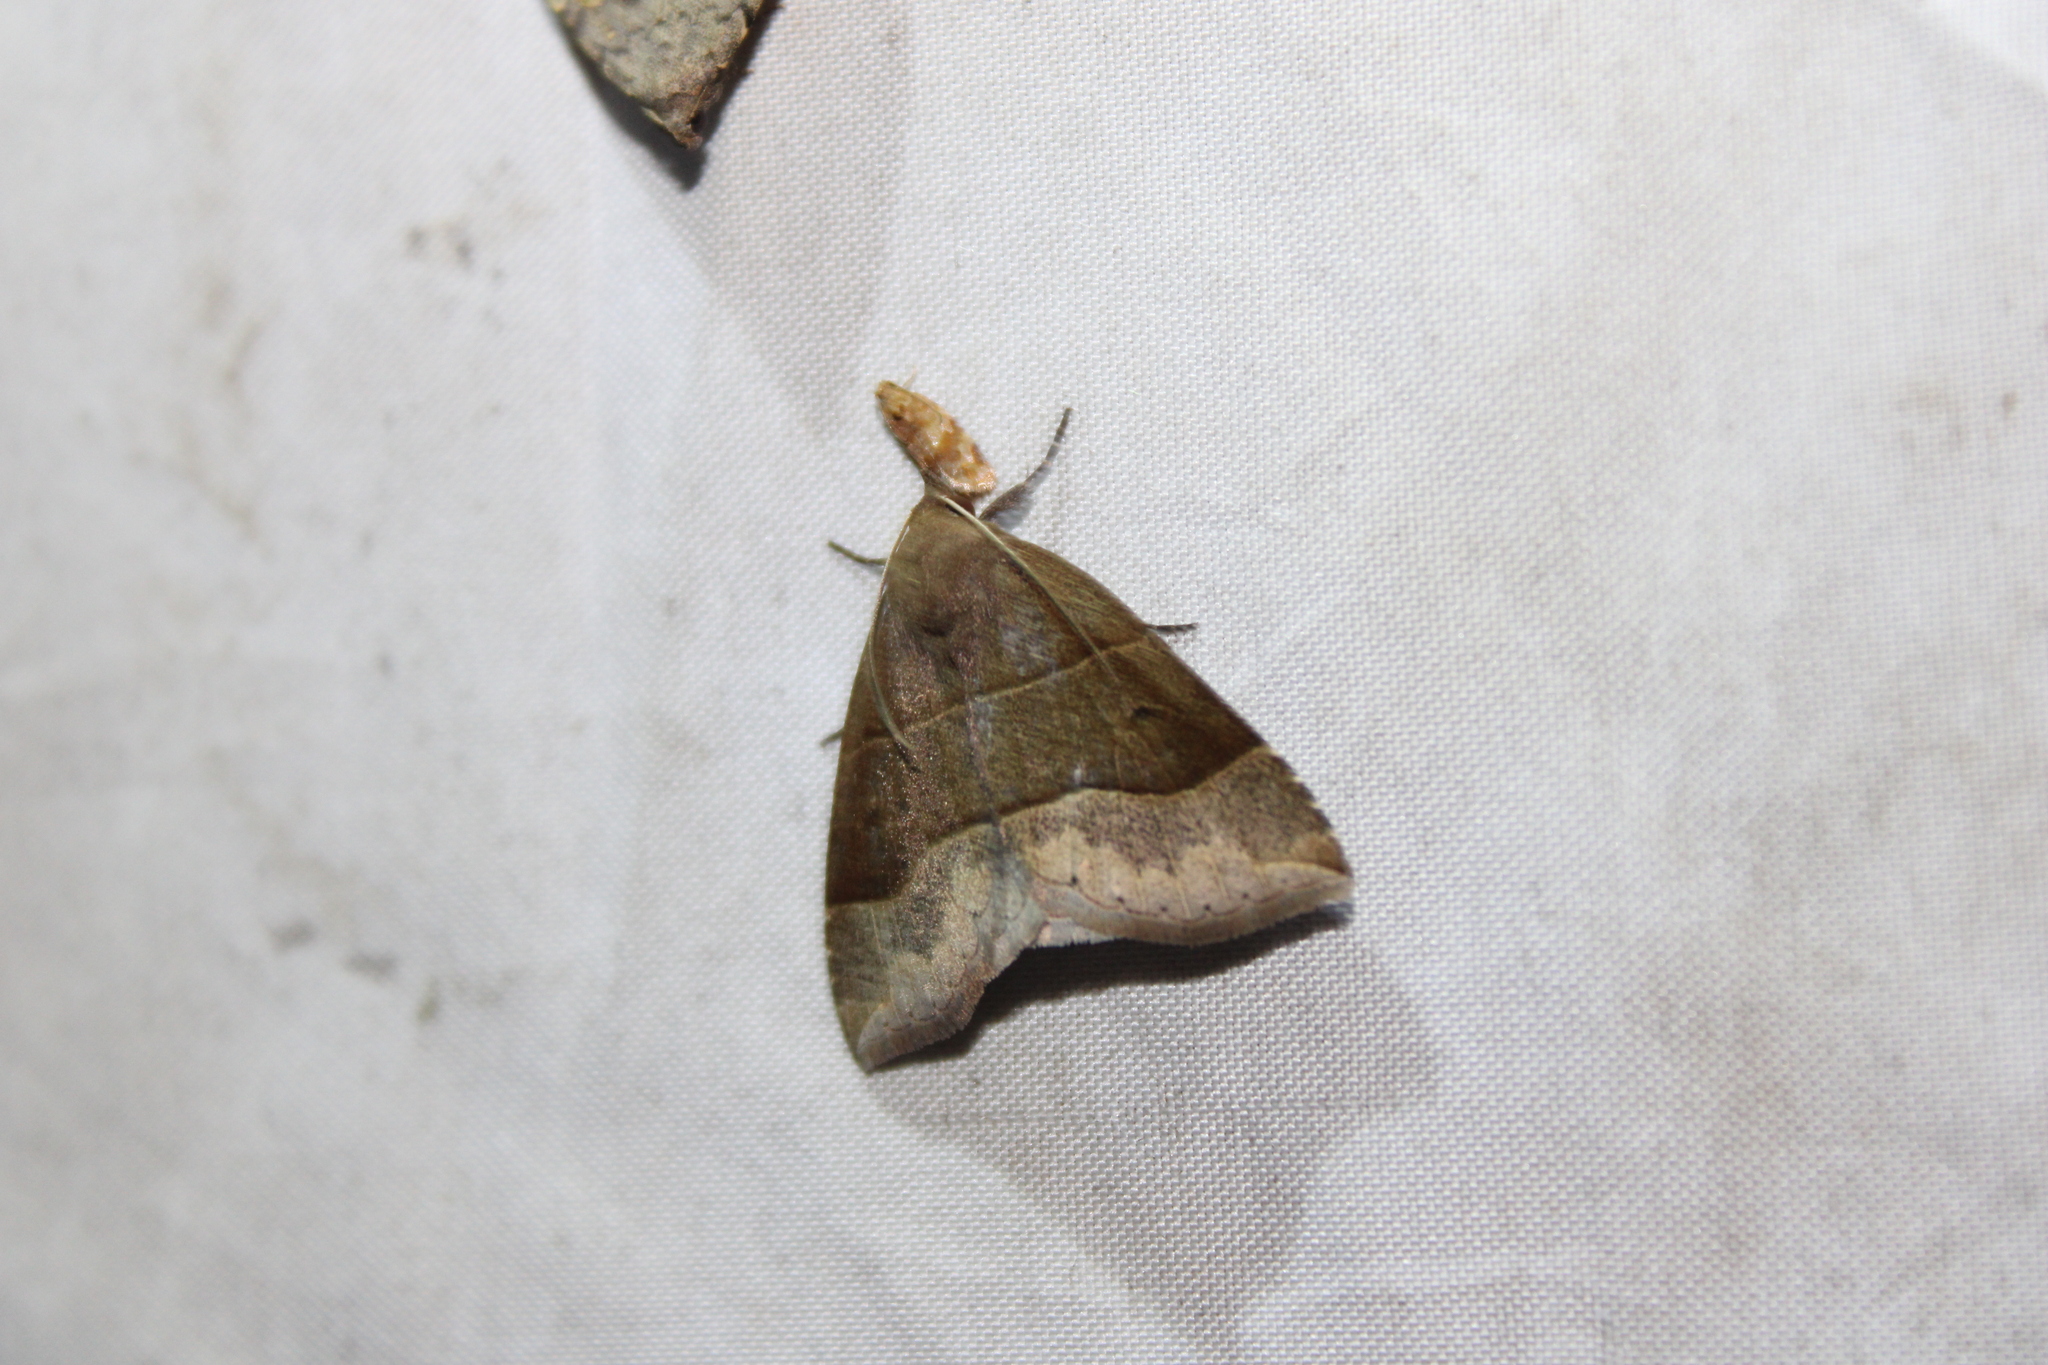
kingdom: Animalia
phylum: Arthropoda
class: Insecta
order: Lepidoptera
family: Erebidae
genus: Parallelia
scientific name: Parallelia bistriaris
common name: Maple looper moth
